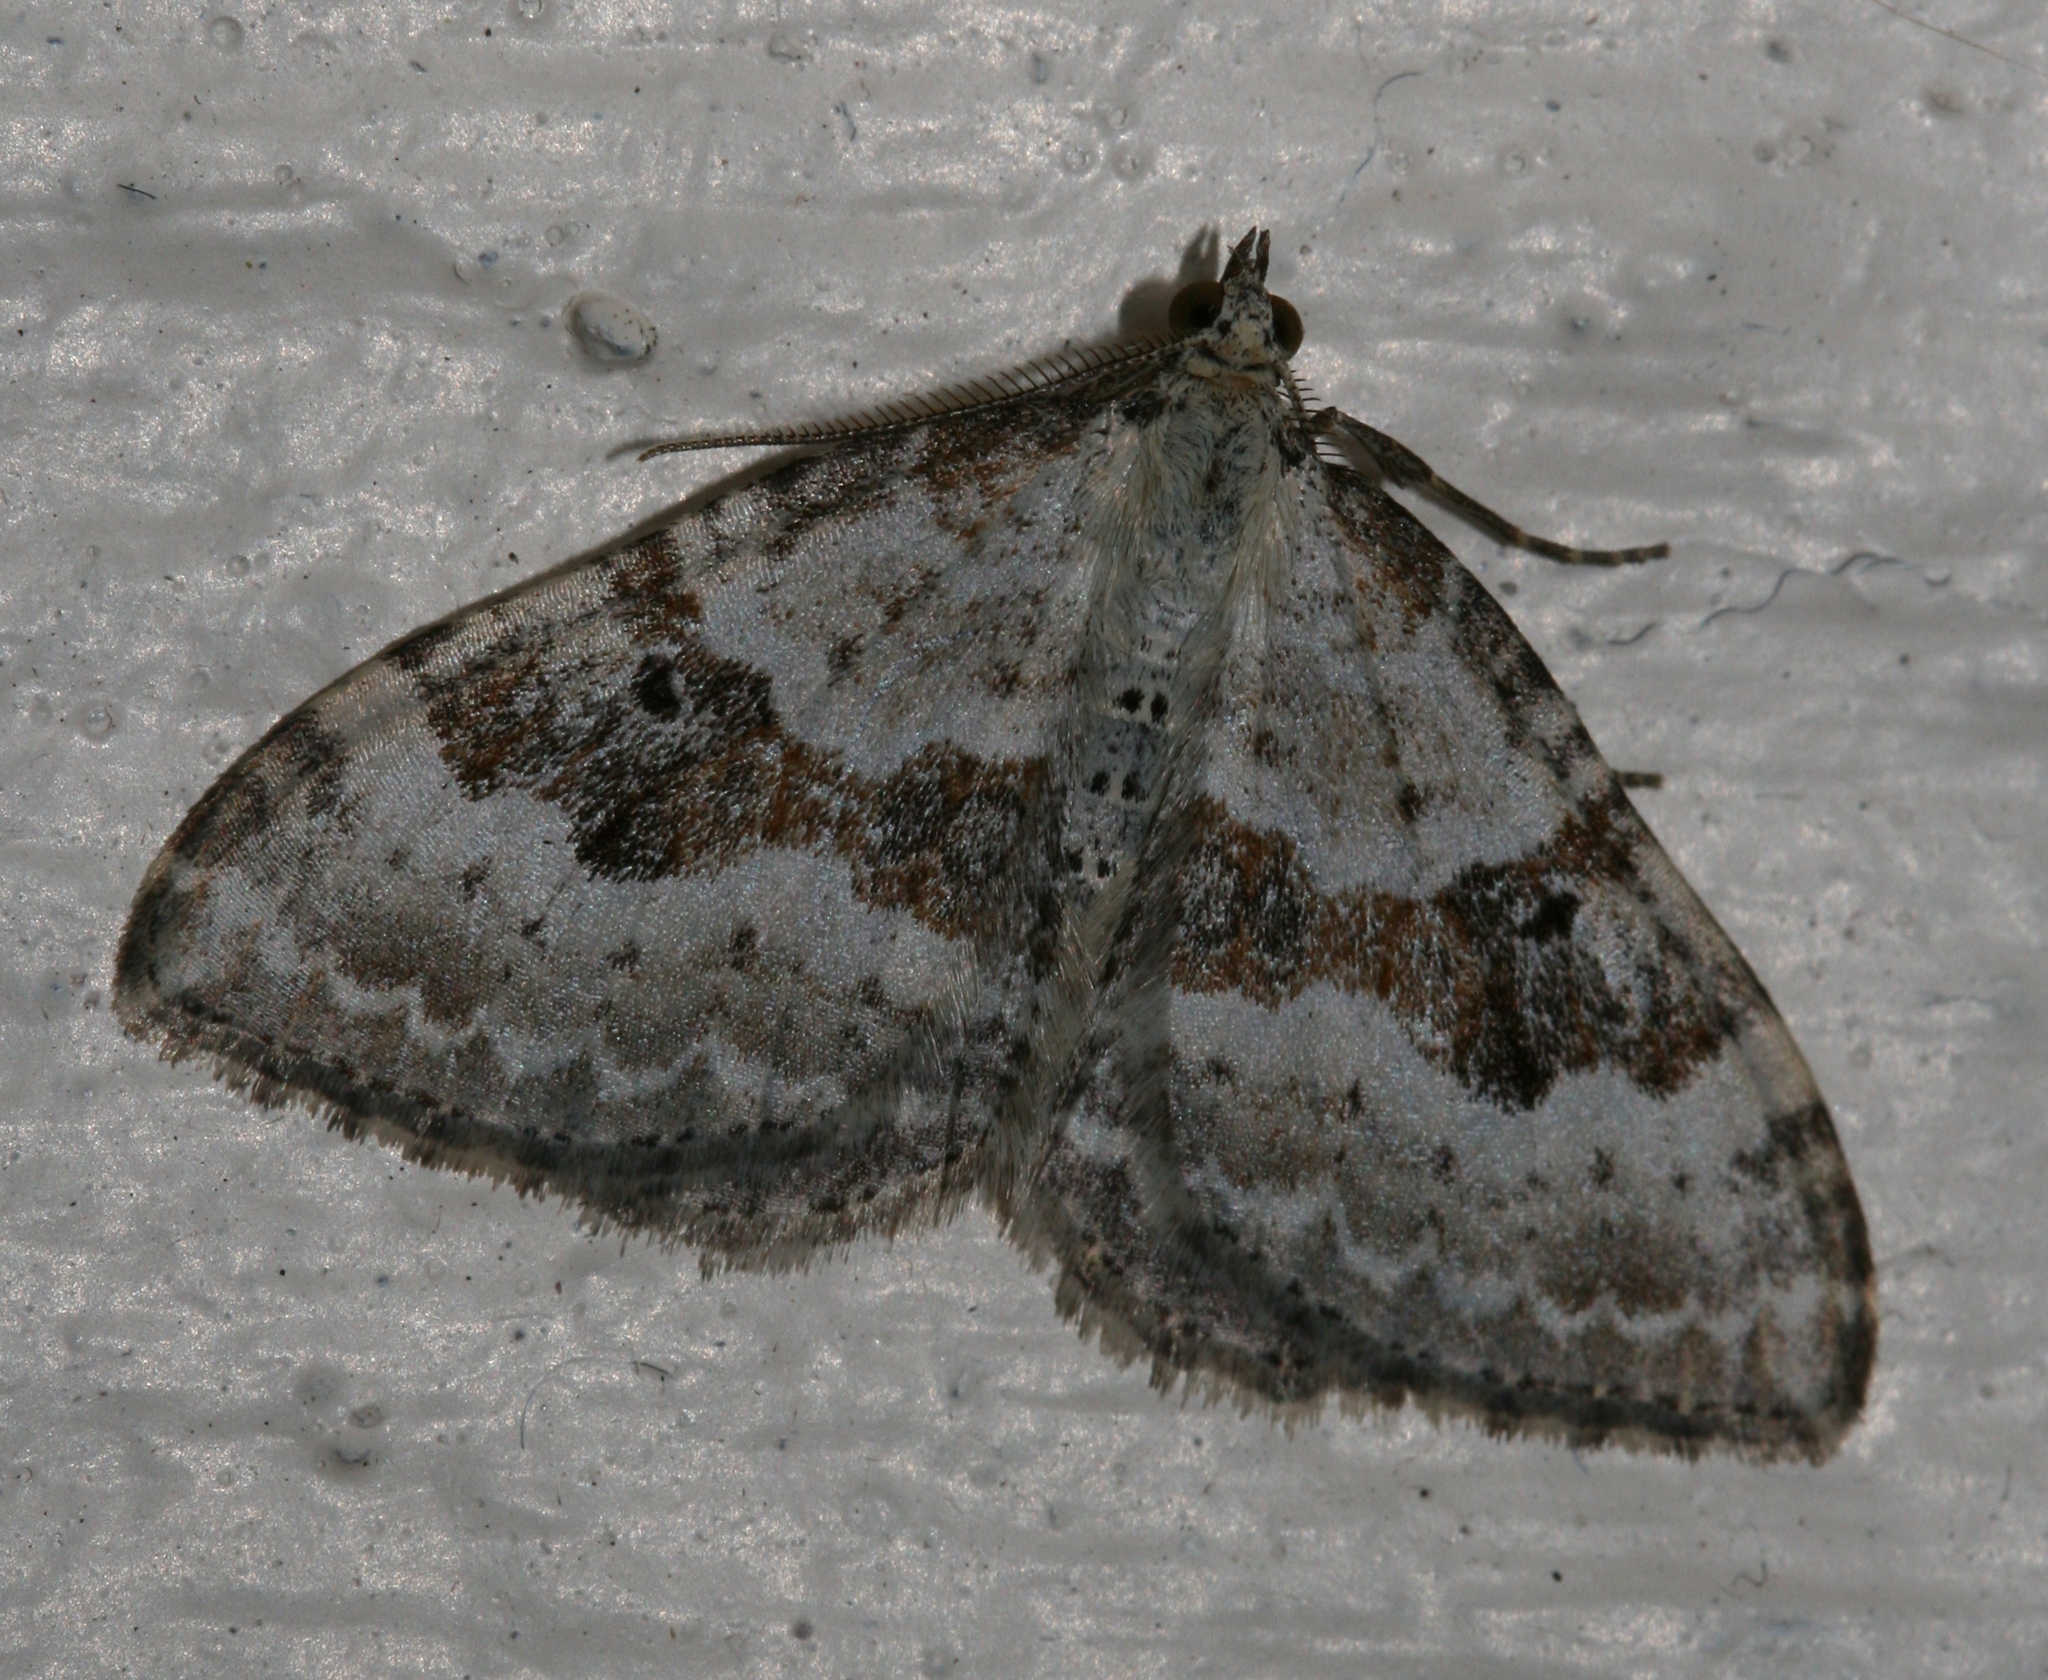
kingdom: Animalia
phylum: Arthropoda
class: Insecta
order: Lepidoptera
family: Geometridae
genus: Xanthorhoe
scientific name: Xanthorhoe montanata
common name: Silver-ground carpet
